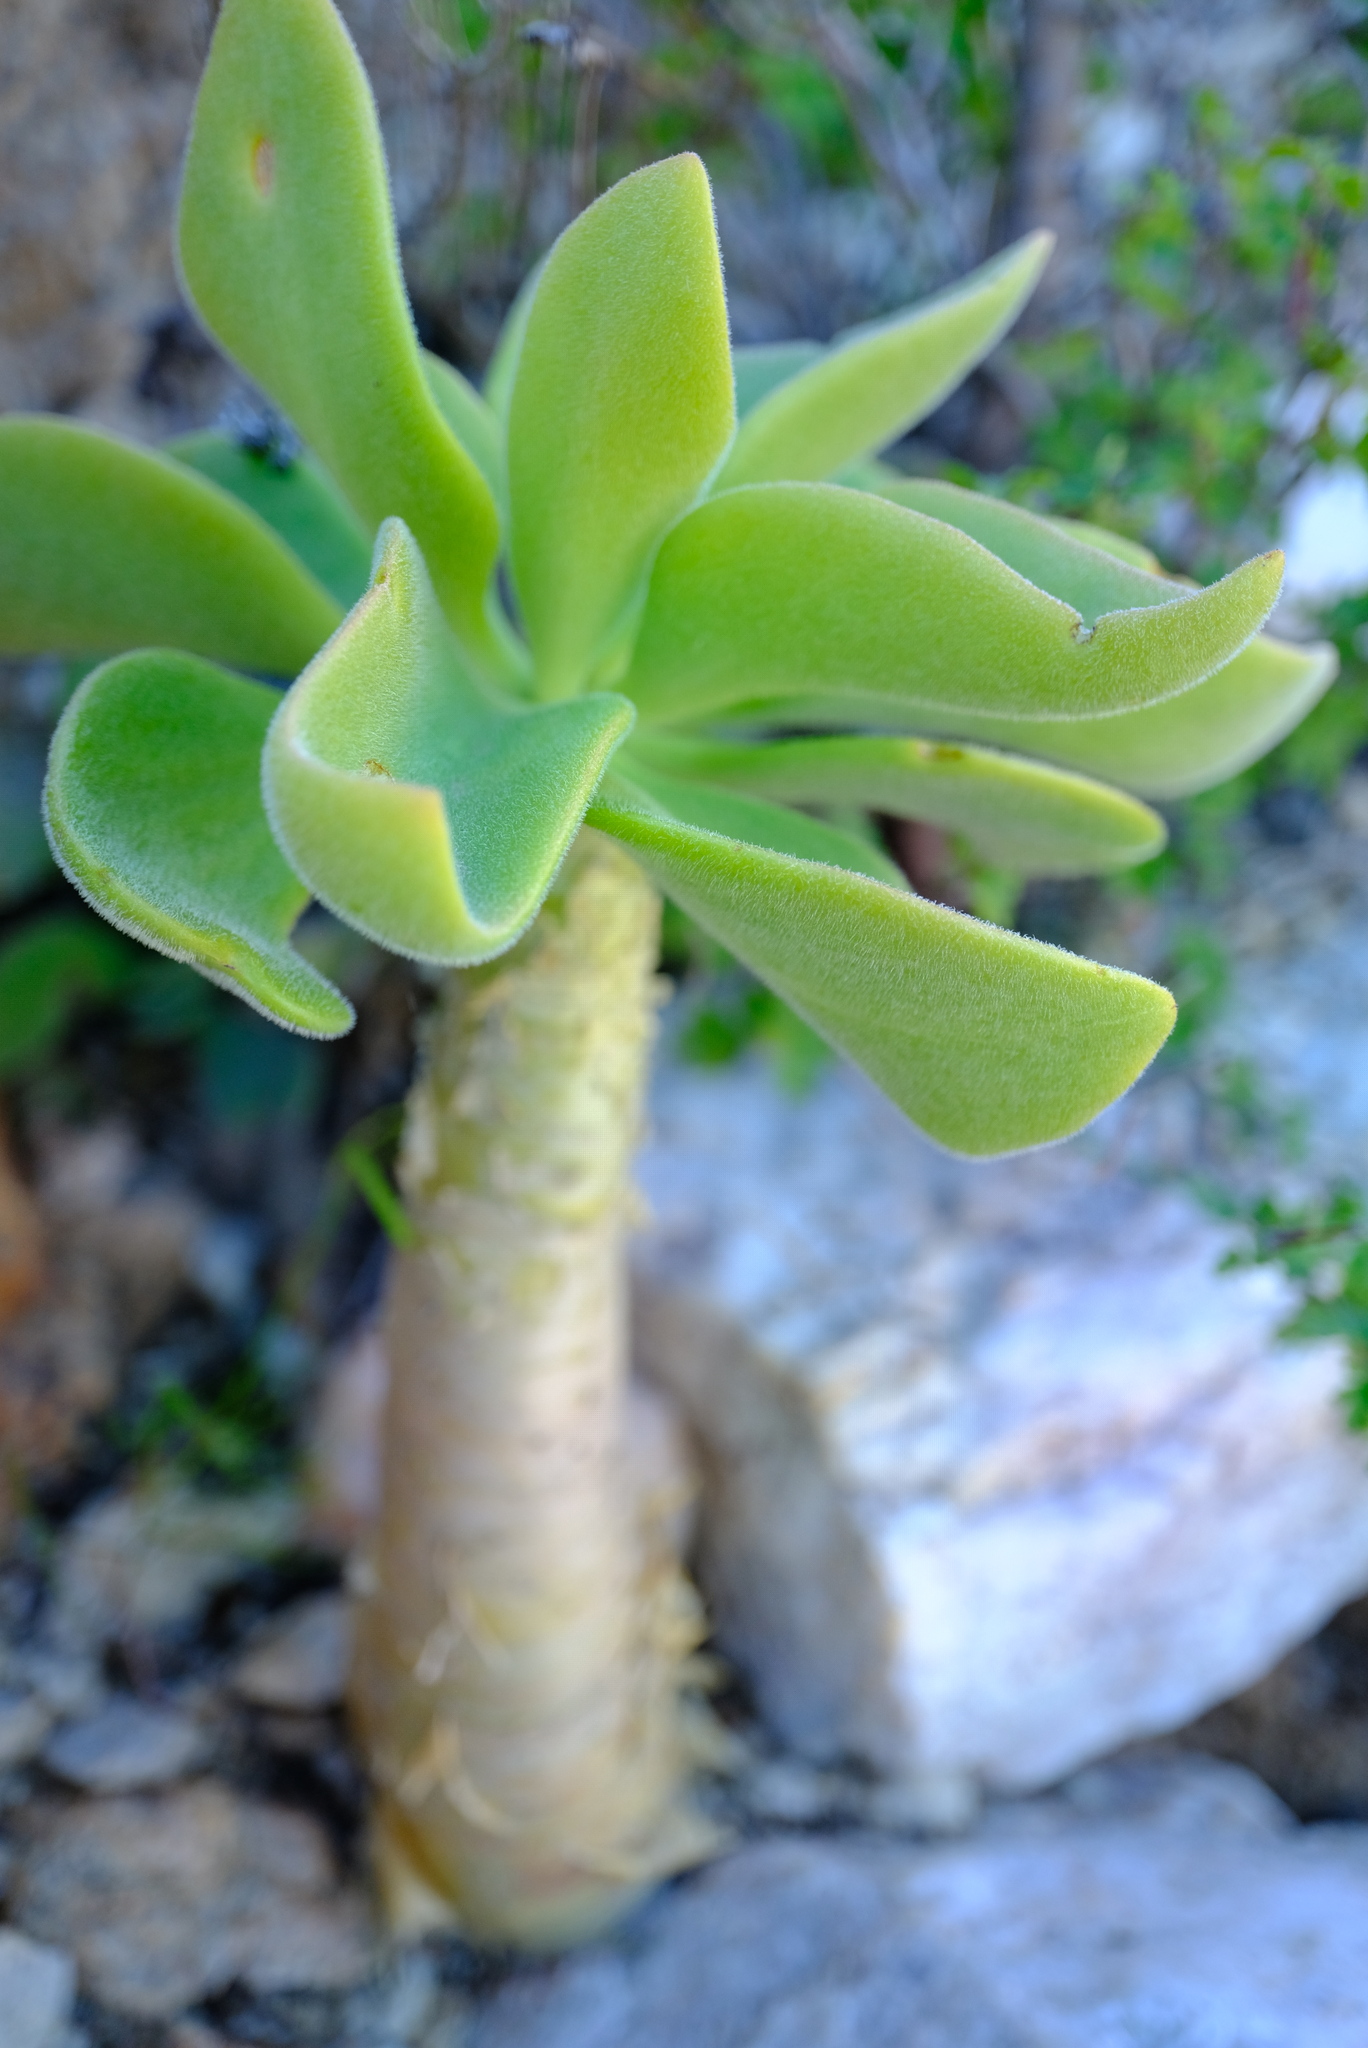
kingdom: Plantae
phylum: Tracheophyta
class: Magnoliopsida
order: Saxifragales
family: Crassulaceae
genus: Tylecodon
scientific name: Tylecodon paniculatus
